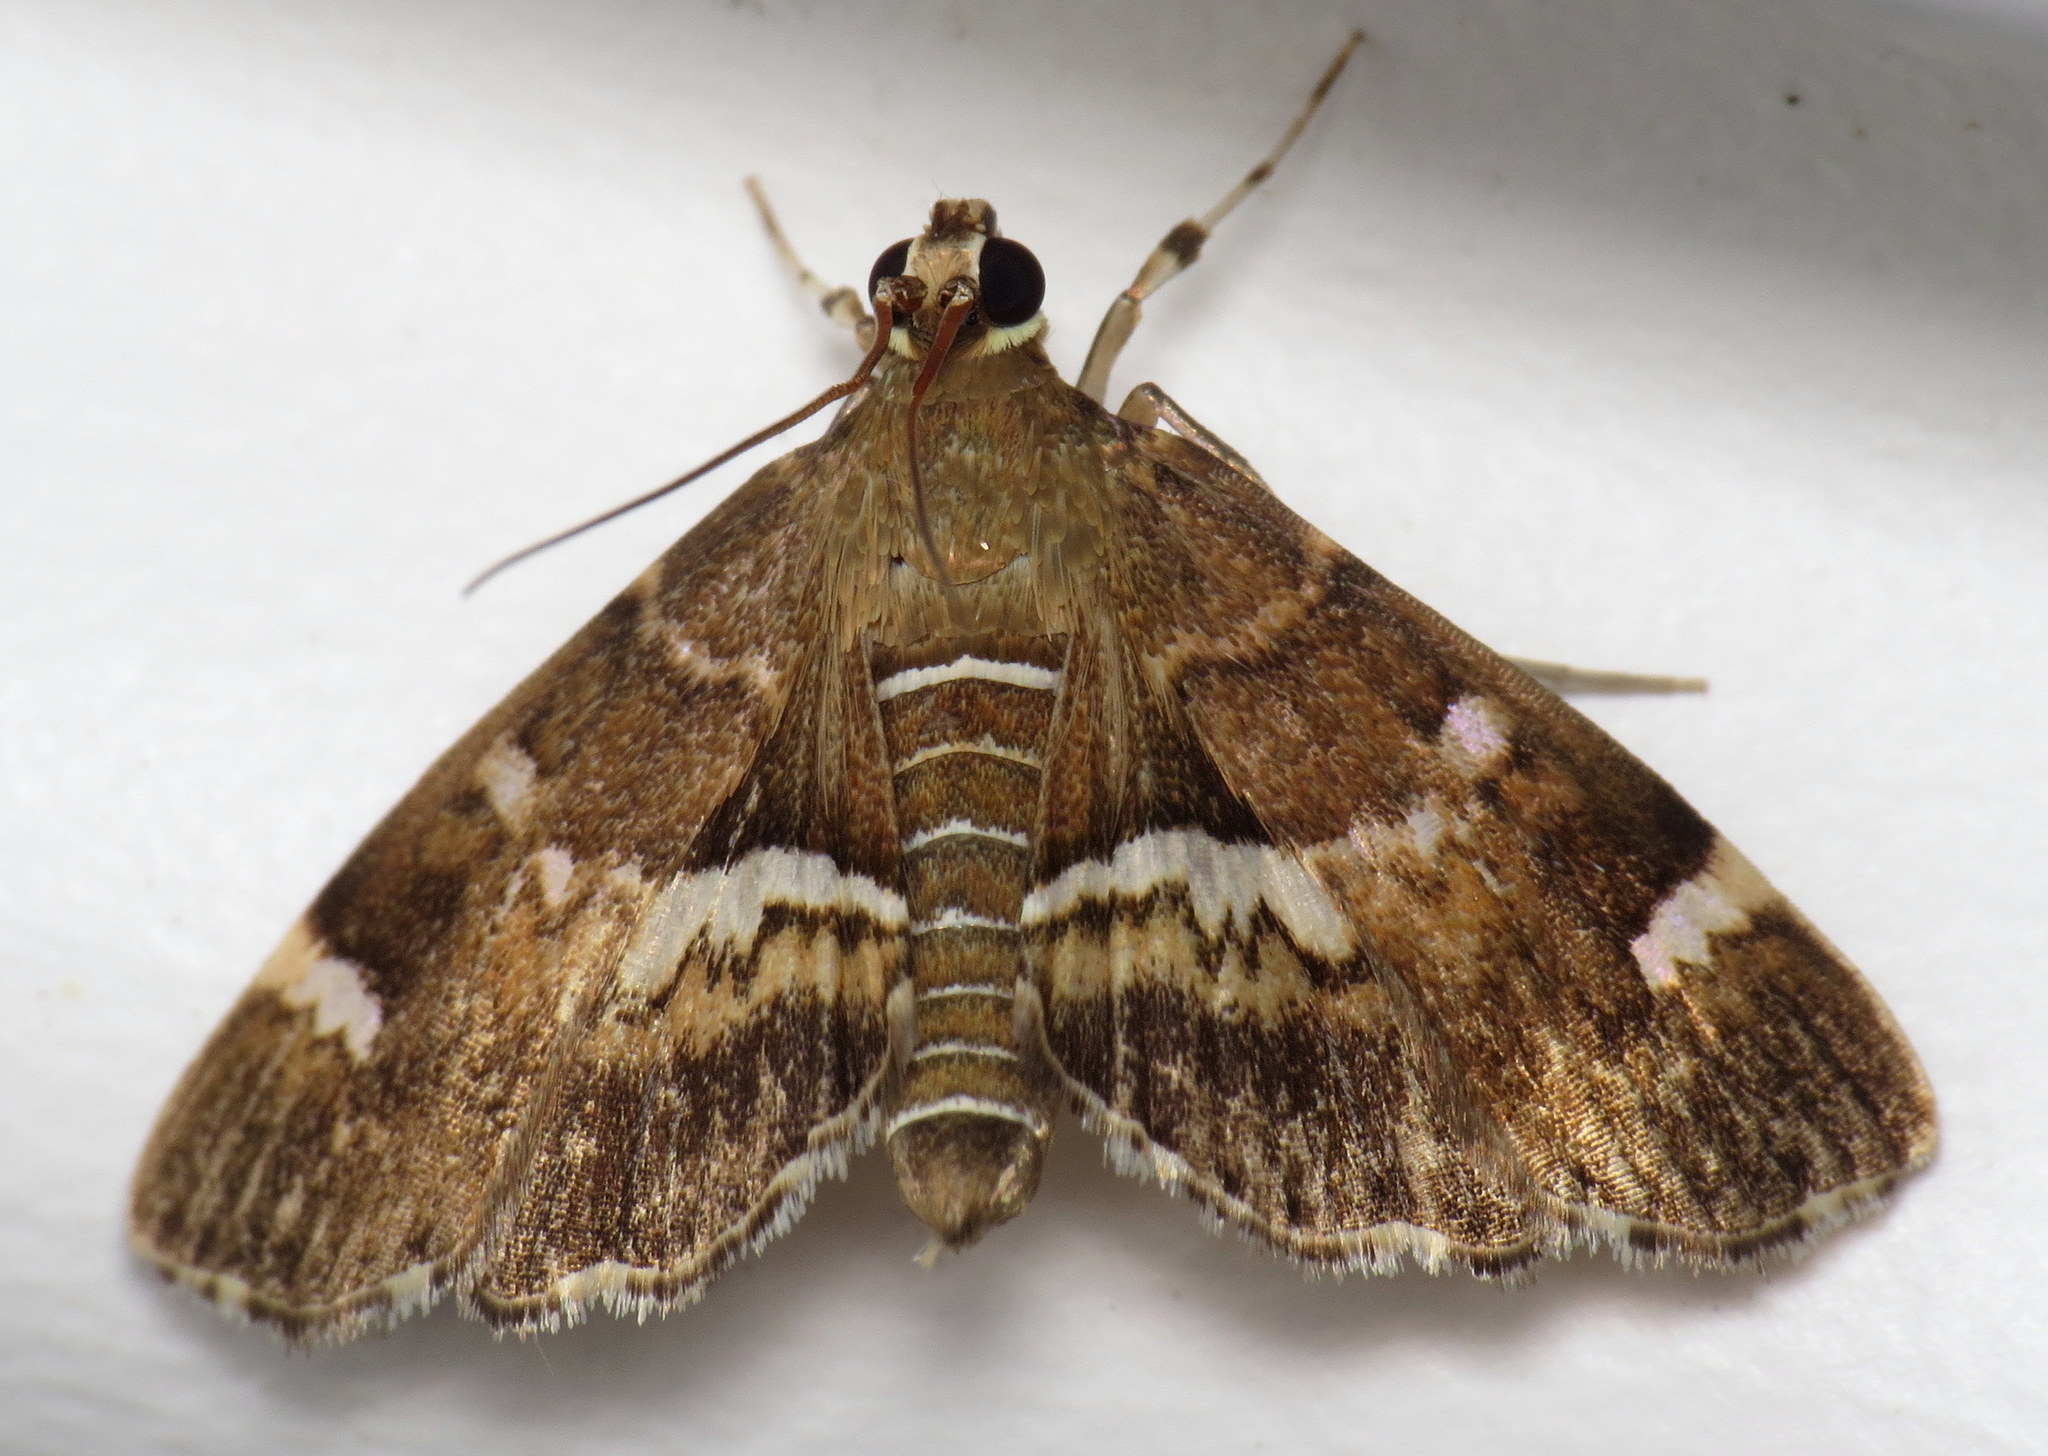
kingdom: Animalia
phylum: Arthropoda
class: Insecta
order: Lepidoptera
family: Crambidae
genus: Hymenia
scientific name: Hymenia perspectalis
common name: Spotted beet webworm
